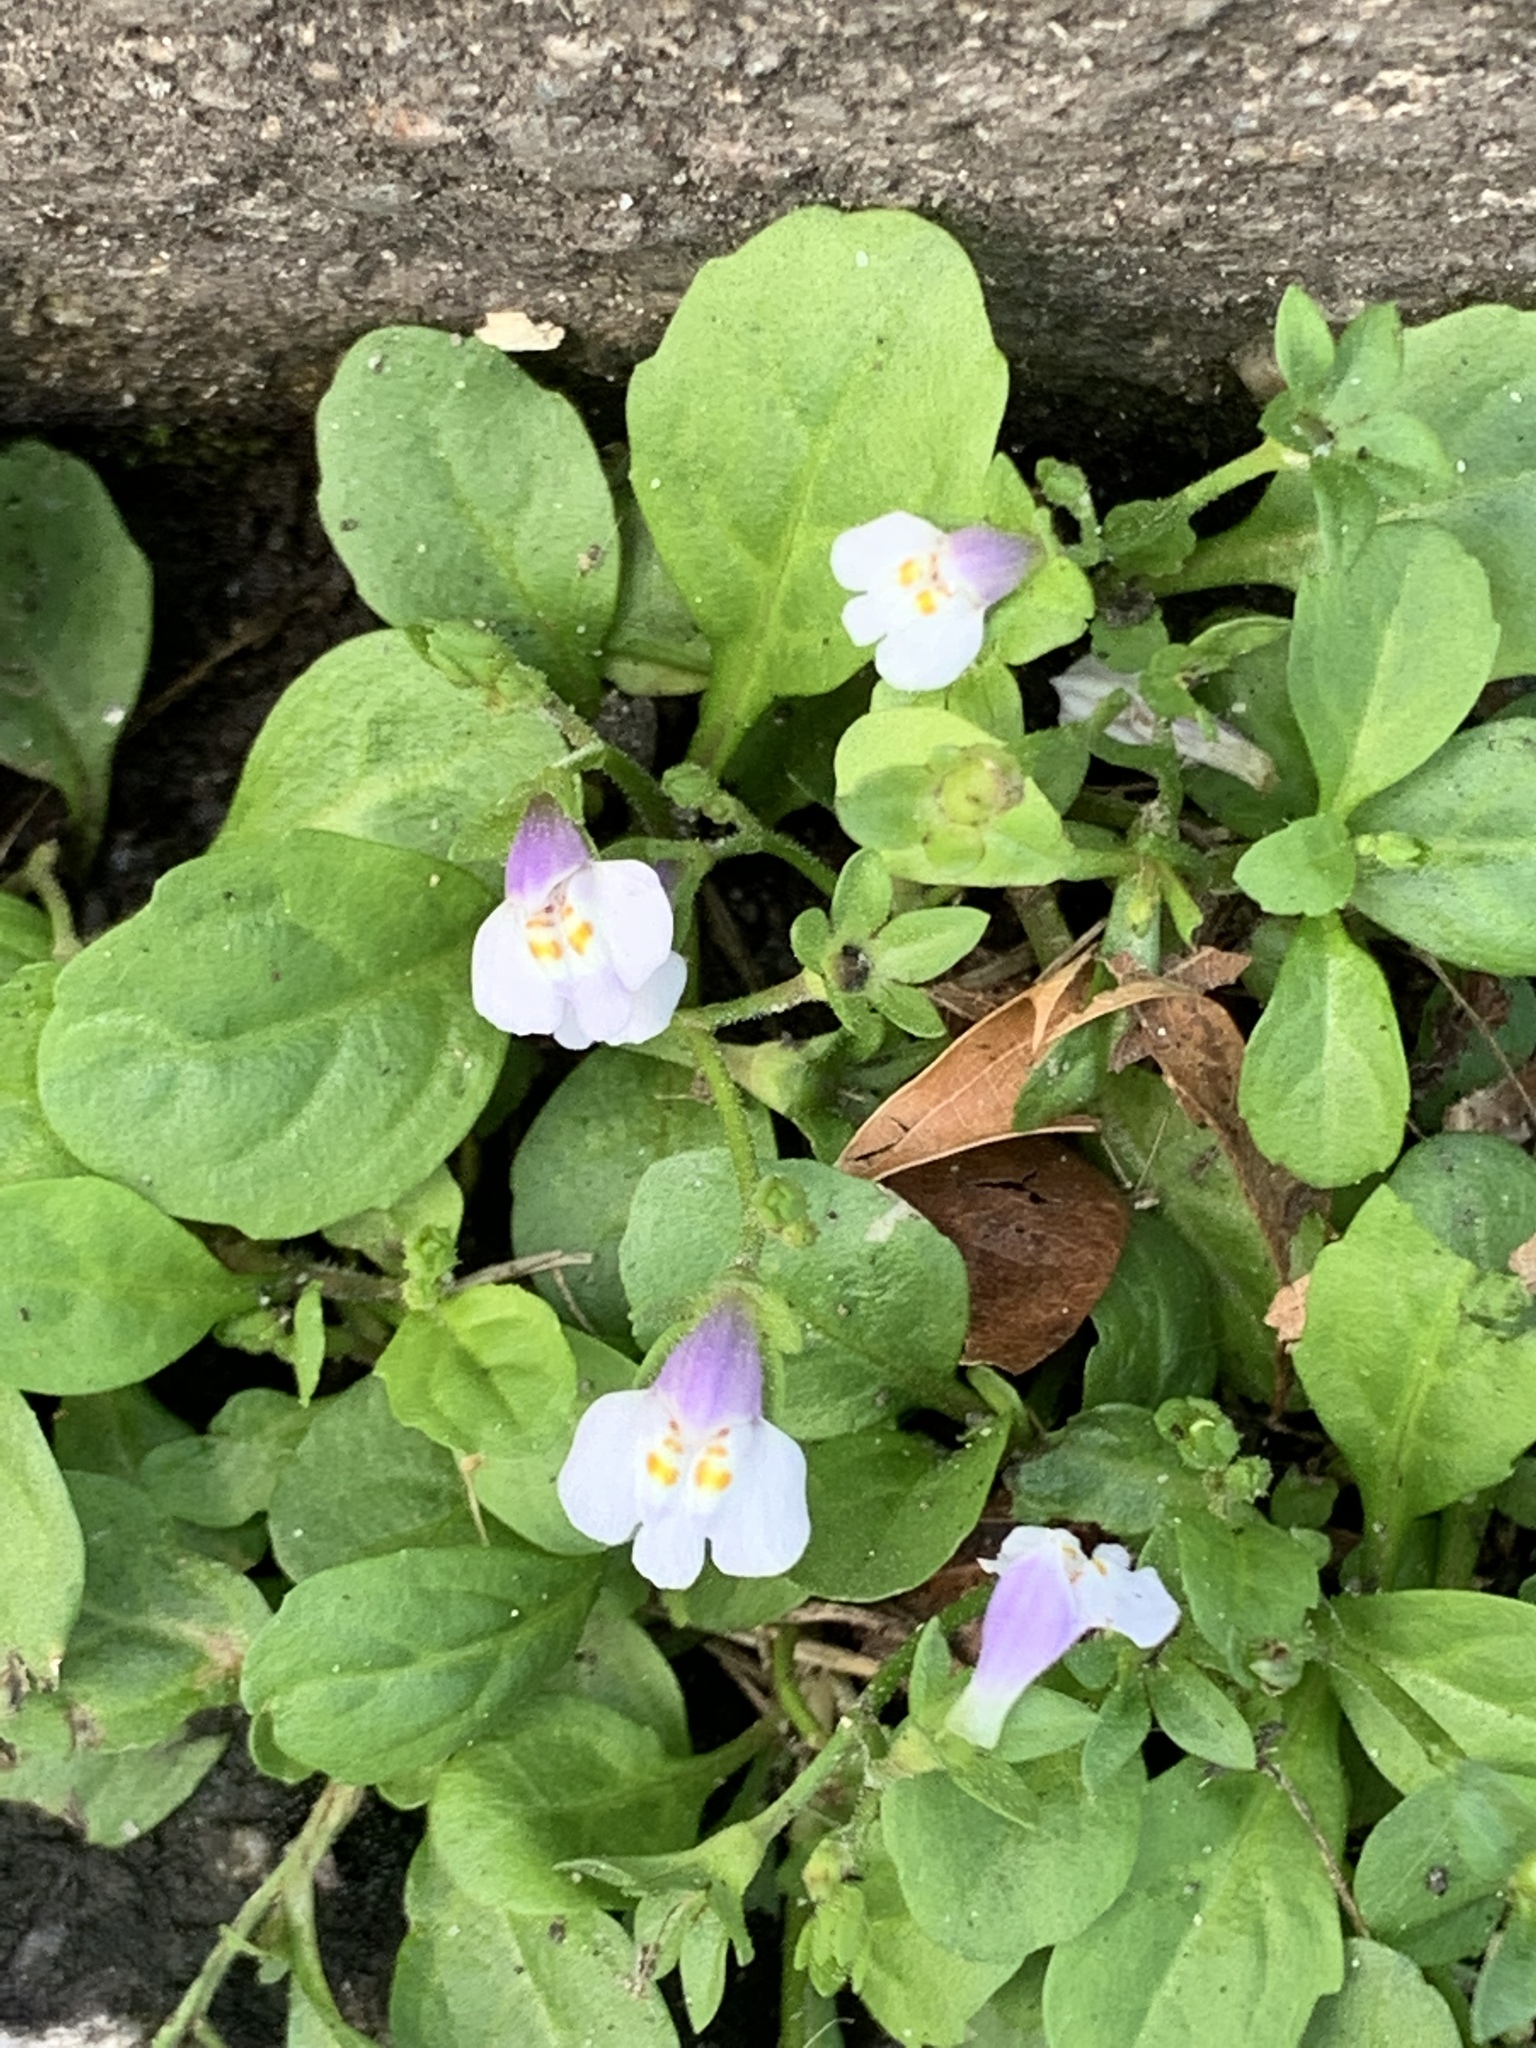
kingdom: Plantae
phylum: Tracheophyta
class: Magnoliopsida
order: Lamiales
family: Mazaceae
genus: Mazus
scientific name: Mazus pumilus
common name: Japanese mazus
